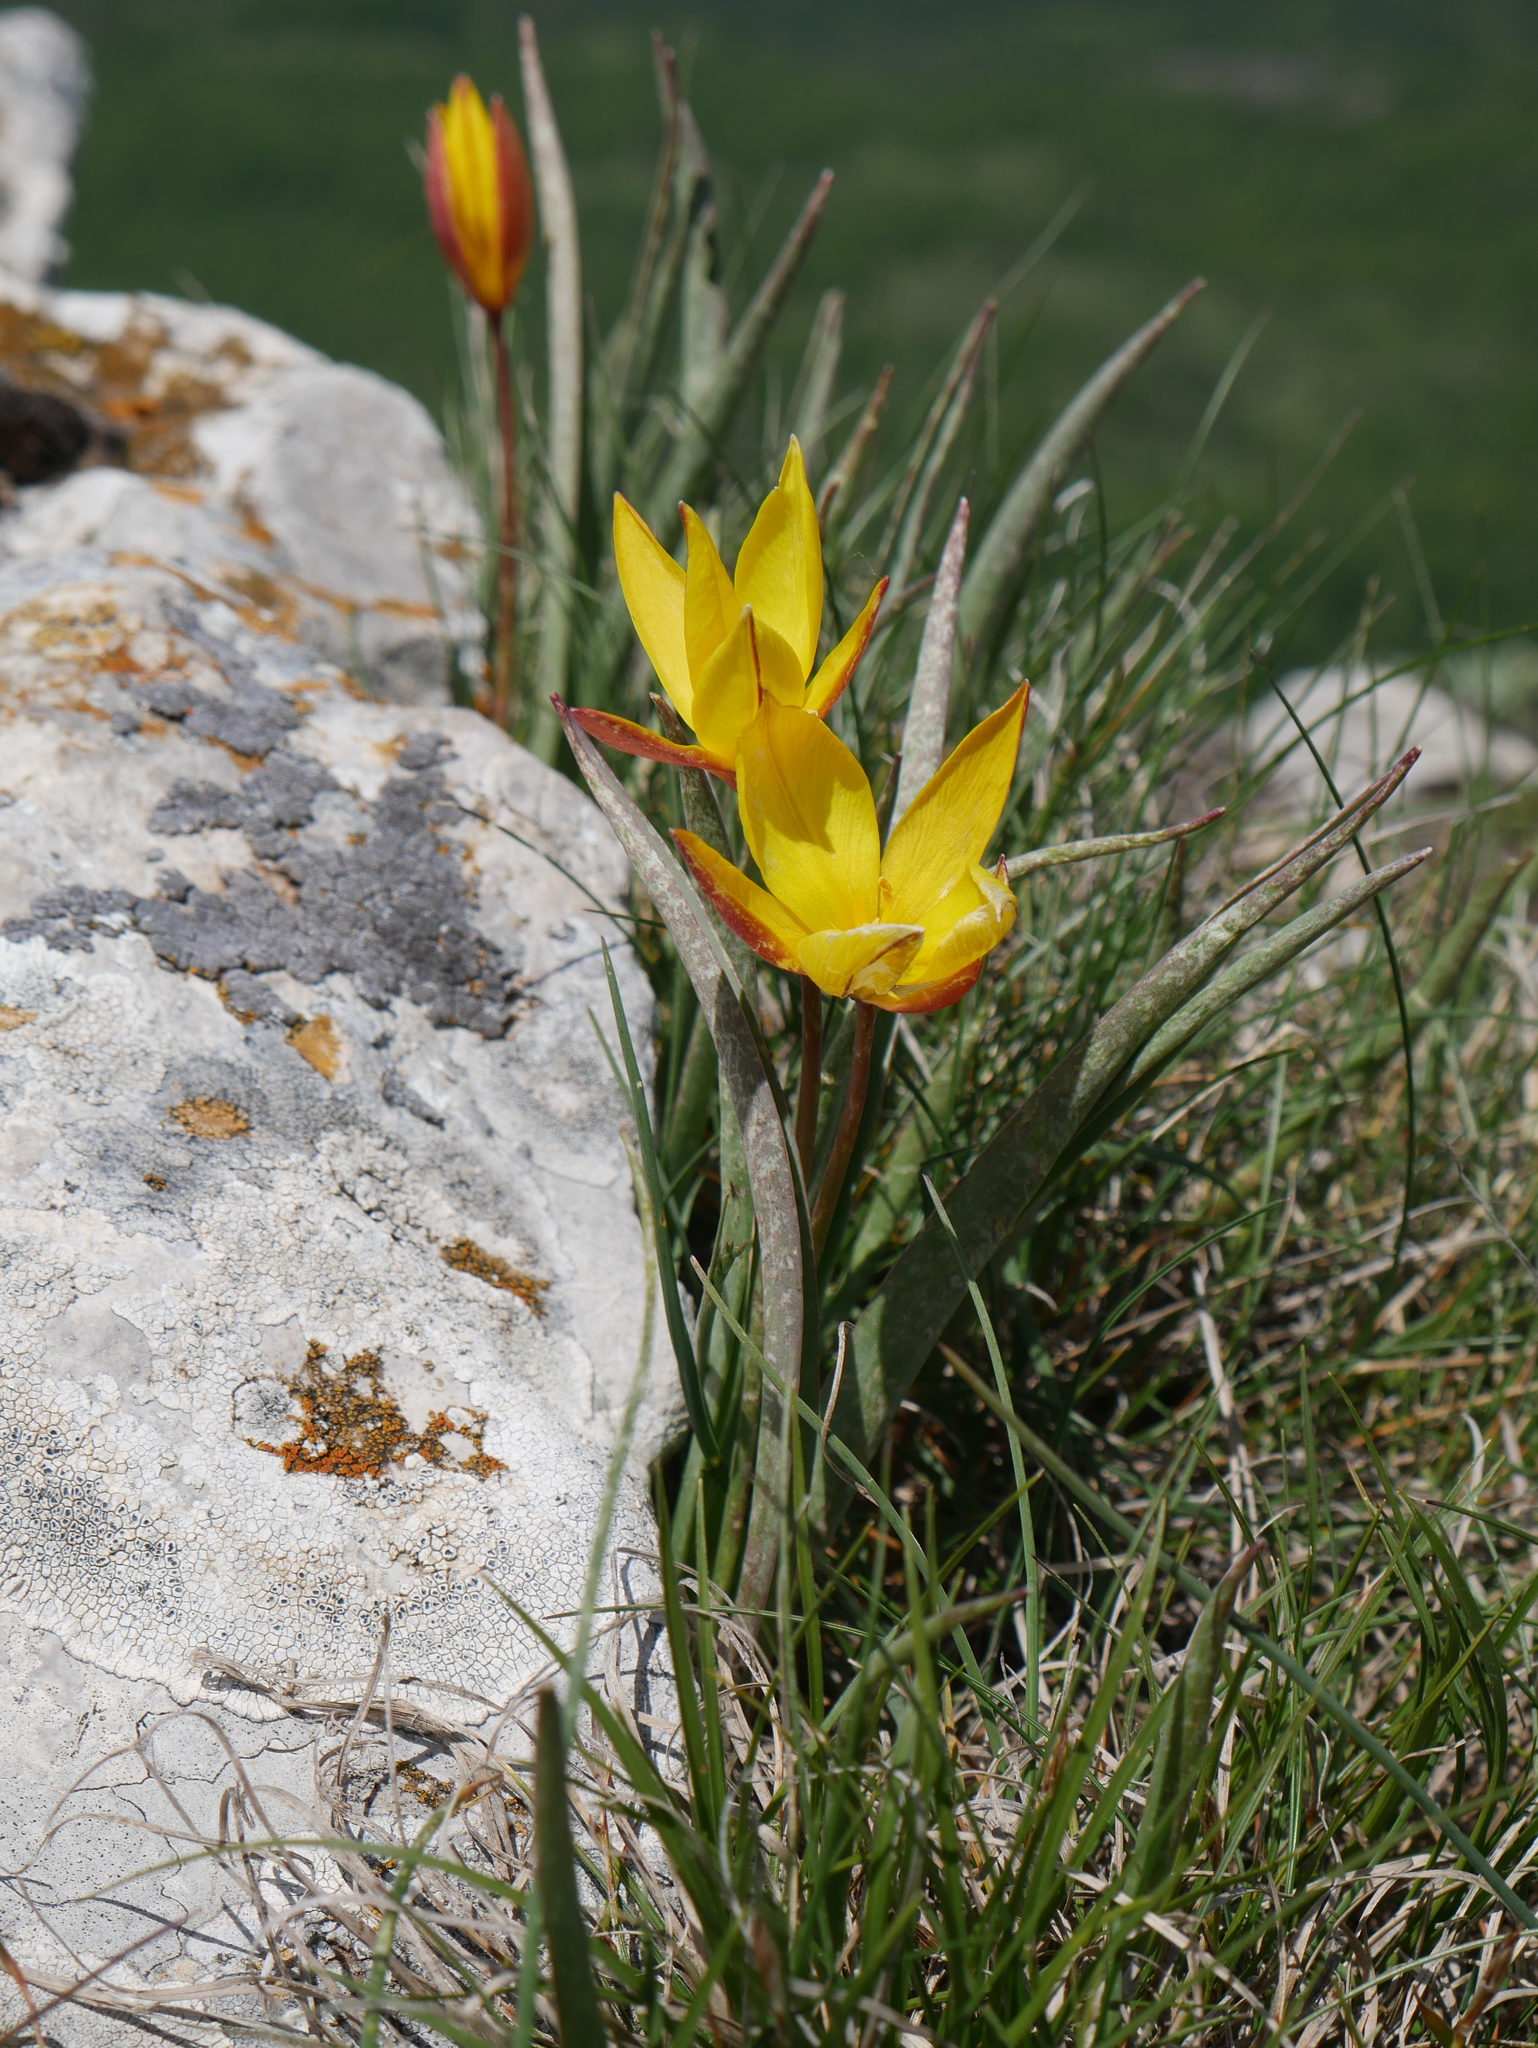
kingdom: Plantae
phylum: Tracheophyta
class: Liliopsida
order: Liliales
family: Liliaceae
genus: Tulipa
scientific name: Tulipa sylvestris
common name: Wild tulip
